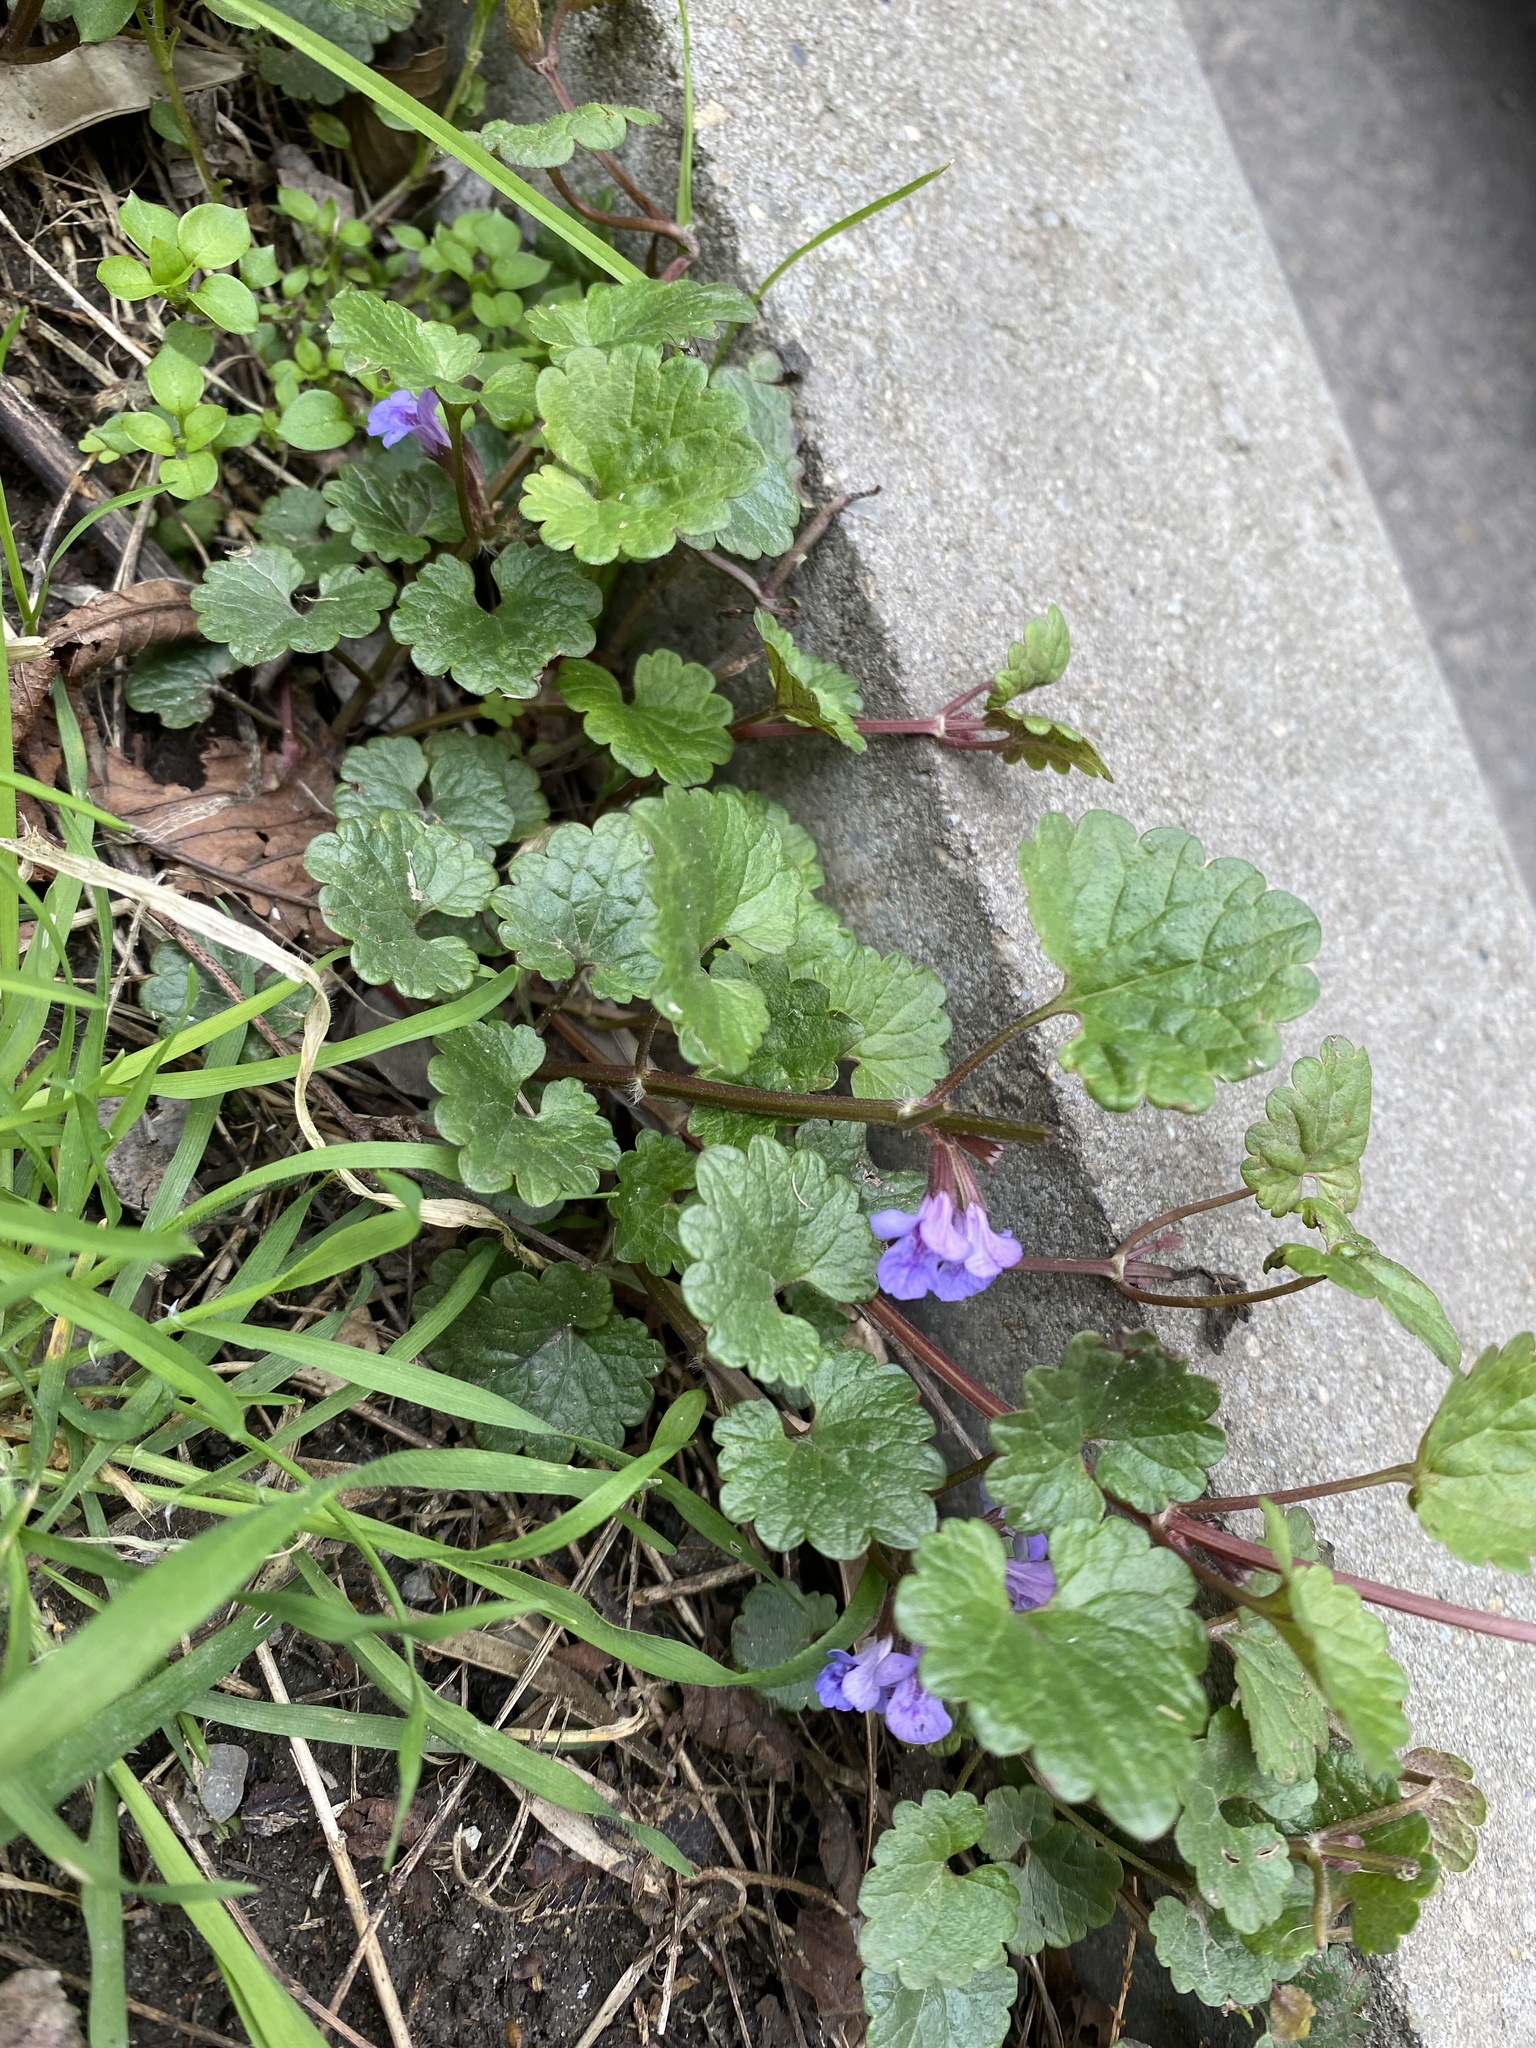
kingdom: Plantae
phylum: Tracheophyta
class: Magnoliopsida
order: Lamiales
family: Lamiaceae
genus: Glechoma
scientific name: Glechoma hederacea
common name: Ground ivy
